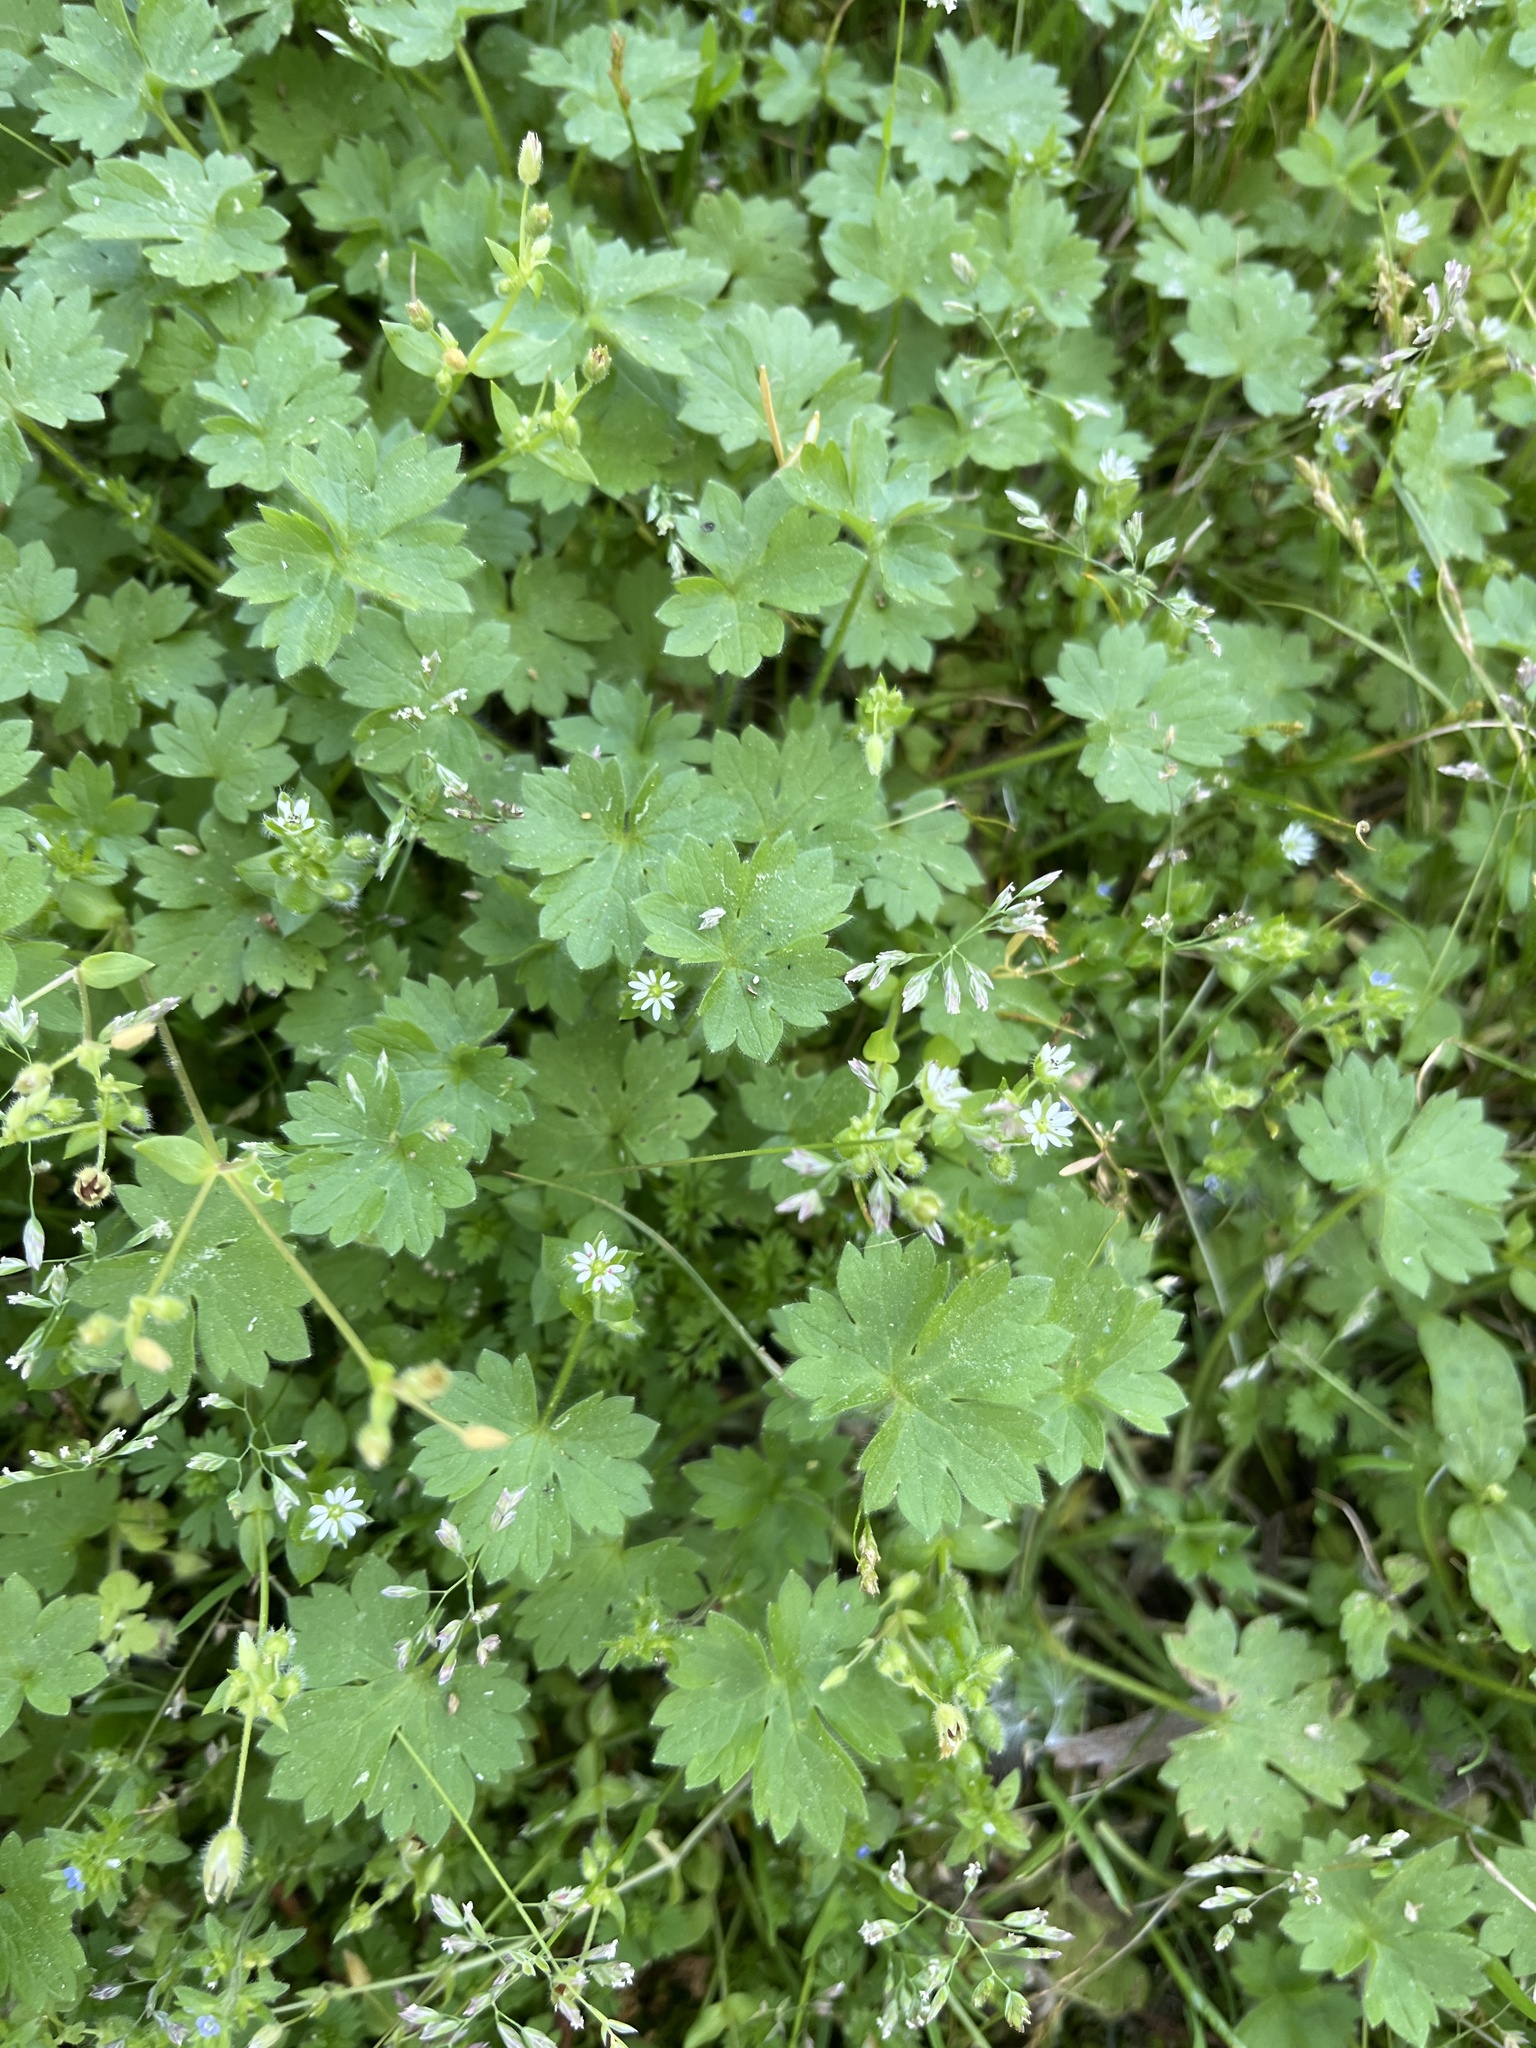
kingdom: Plantae
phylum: Tracheophyta
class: Magnoliopsida
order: Ranunculales
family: Ranunculaceae
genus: Ranunculus
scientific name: Ranunculus parviflorus
